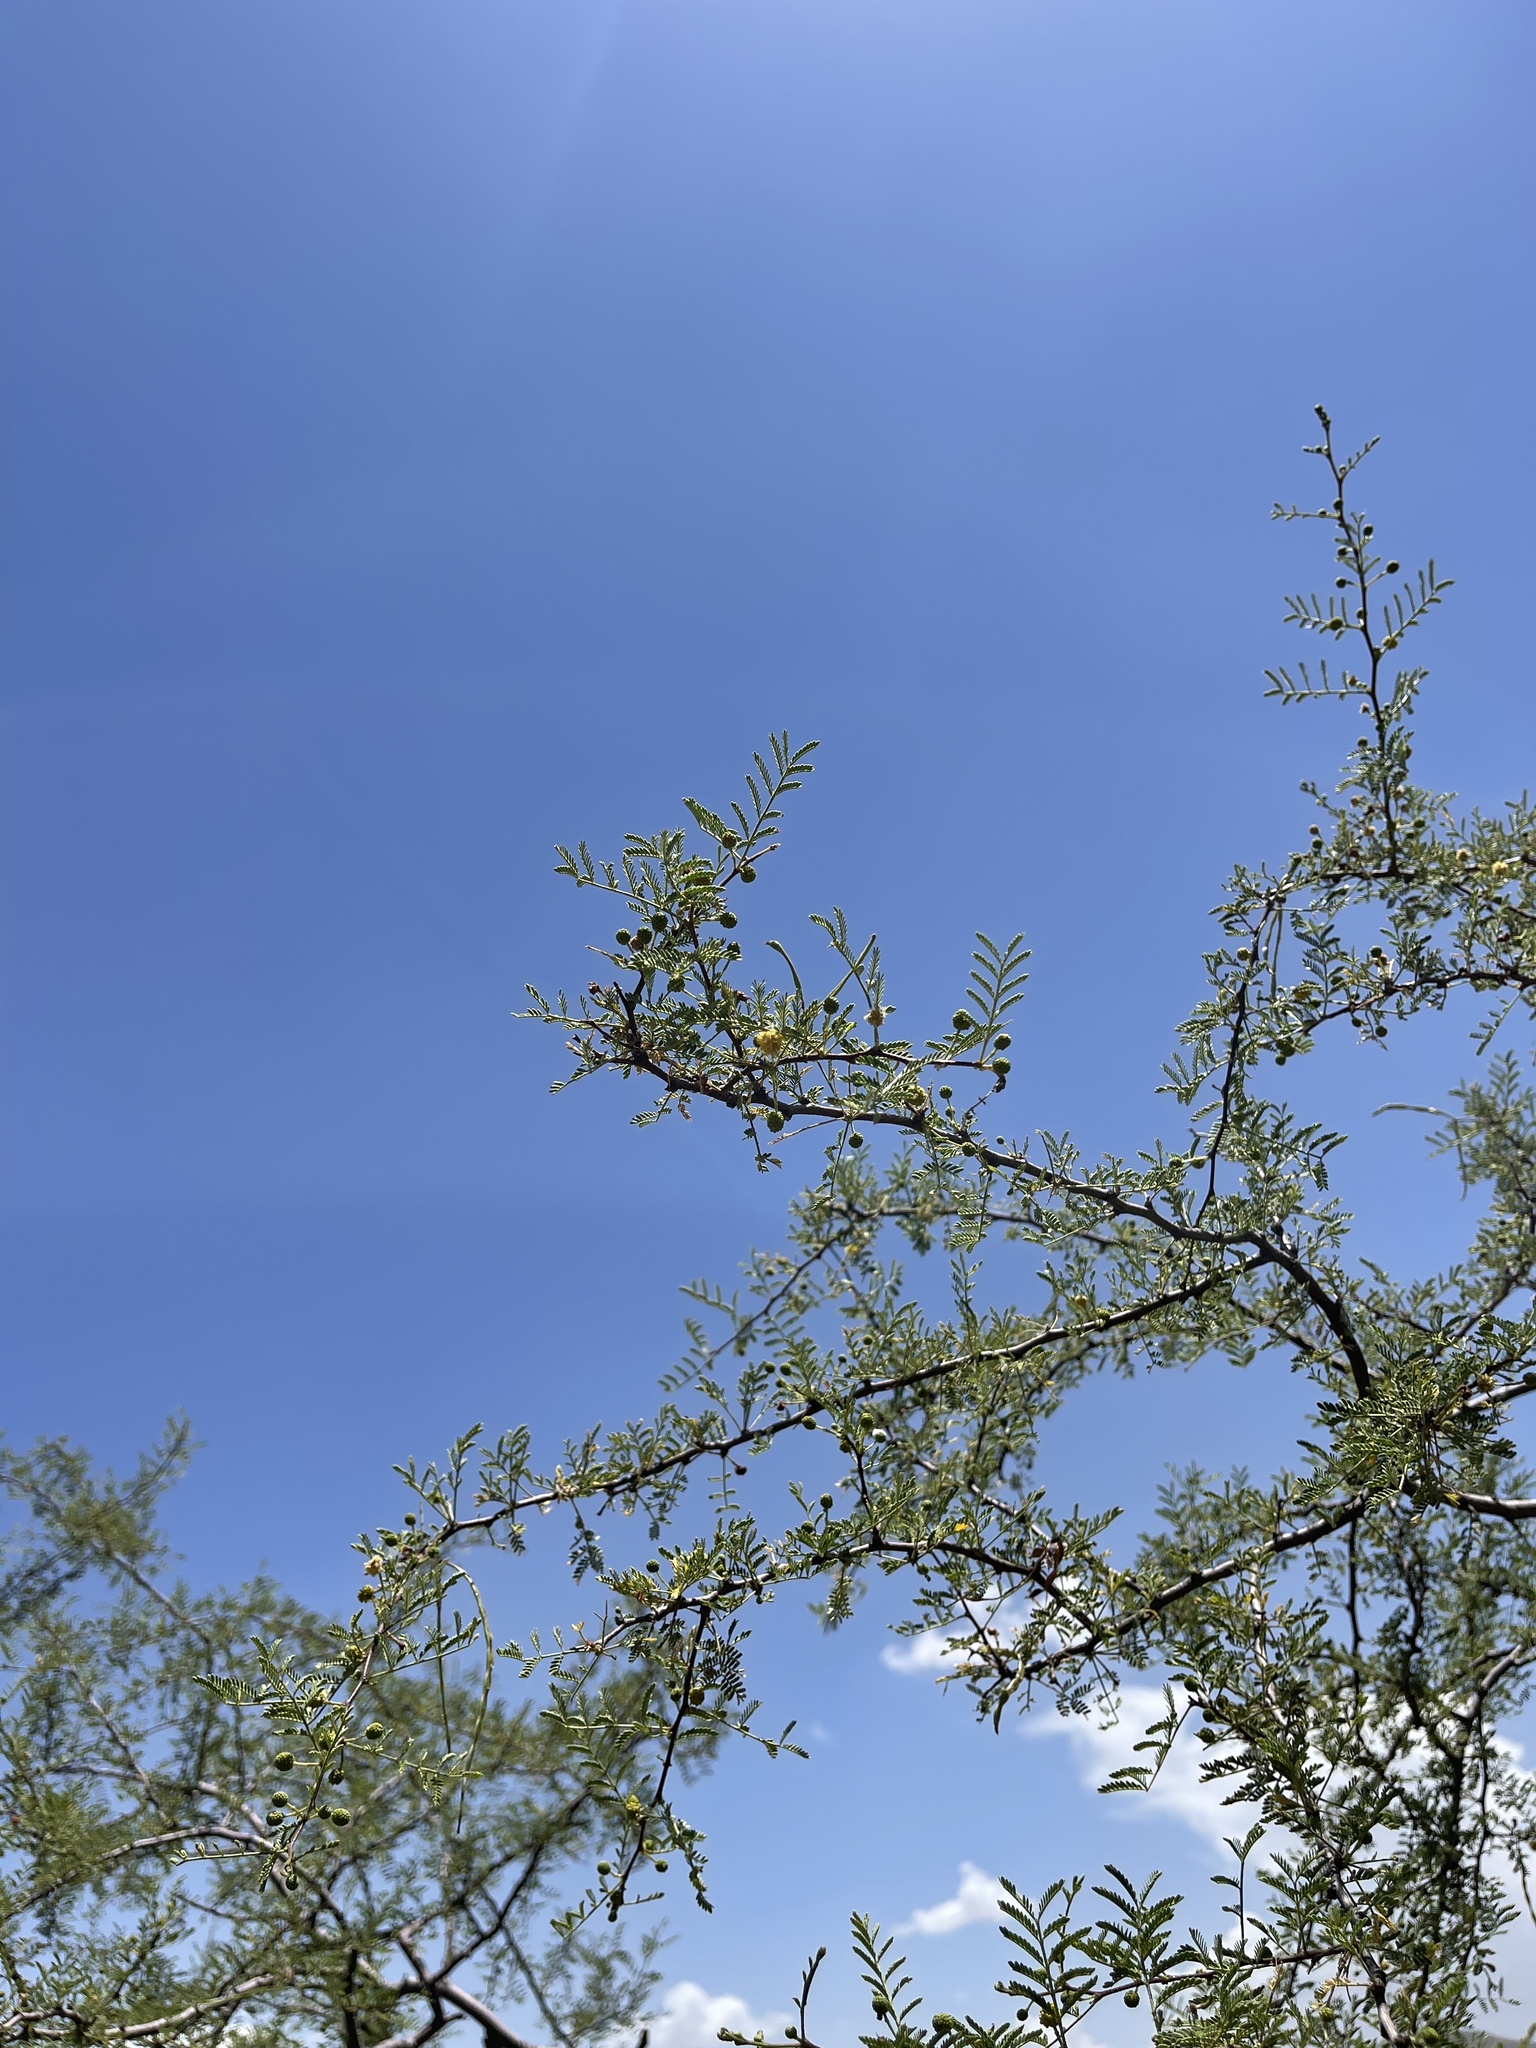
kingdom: Plantae
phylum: Tracheophyta
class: Magnoliopsida
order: Fabales
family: Fabaceae
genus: Senegalia
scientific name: Senegalia greggii
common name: Texas-mimosa
